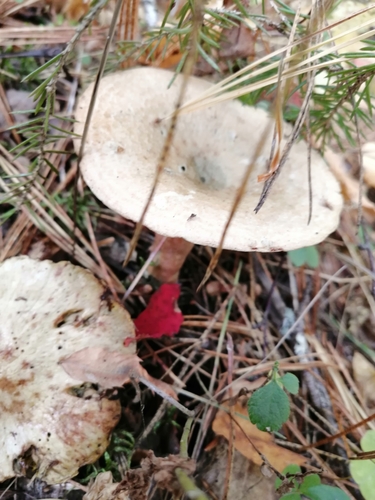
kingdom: Fungi
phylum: Basidiomycota
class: Agaricomycetes
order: Russulales
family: Russulaceae
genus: Lactarius
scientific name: Lactarius deterrimus
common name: False saffron milkcap
